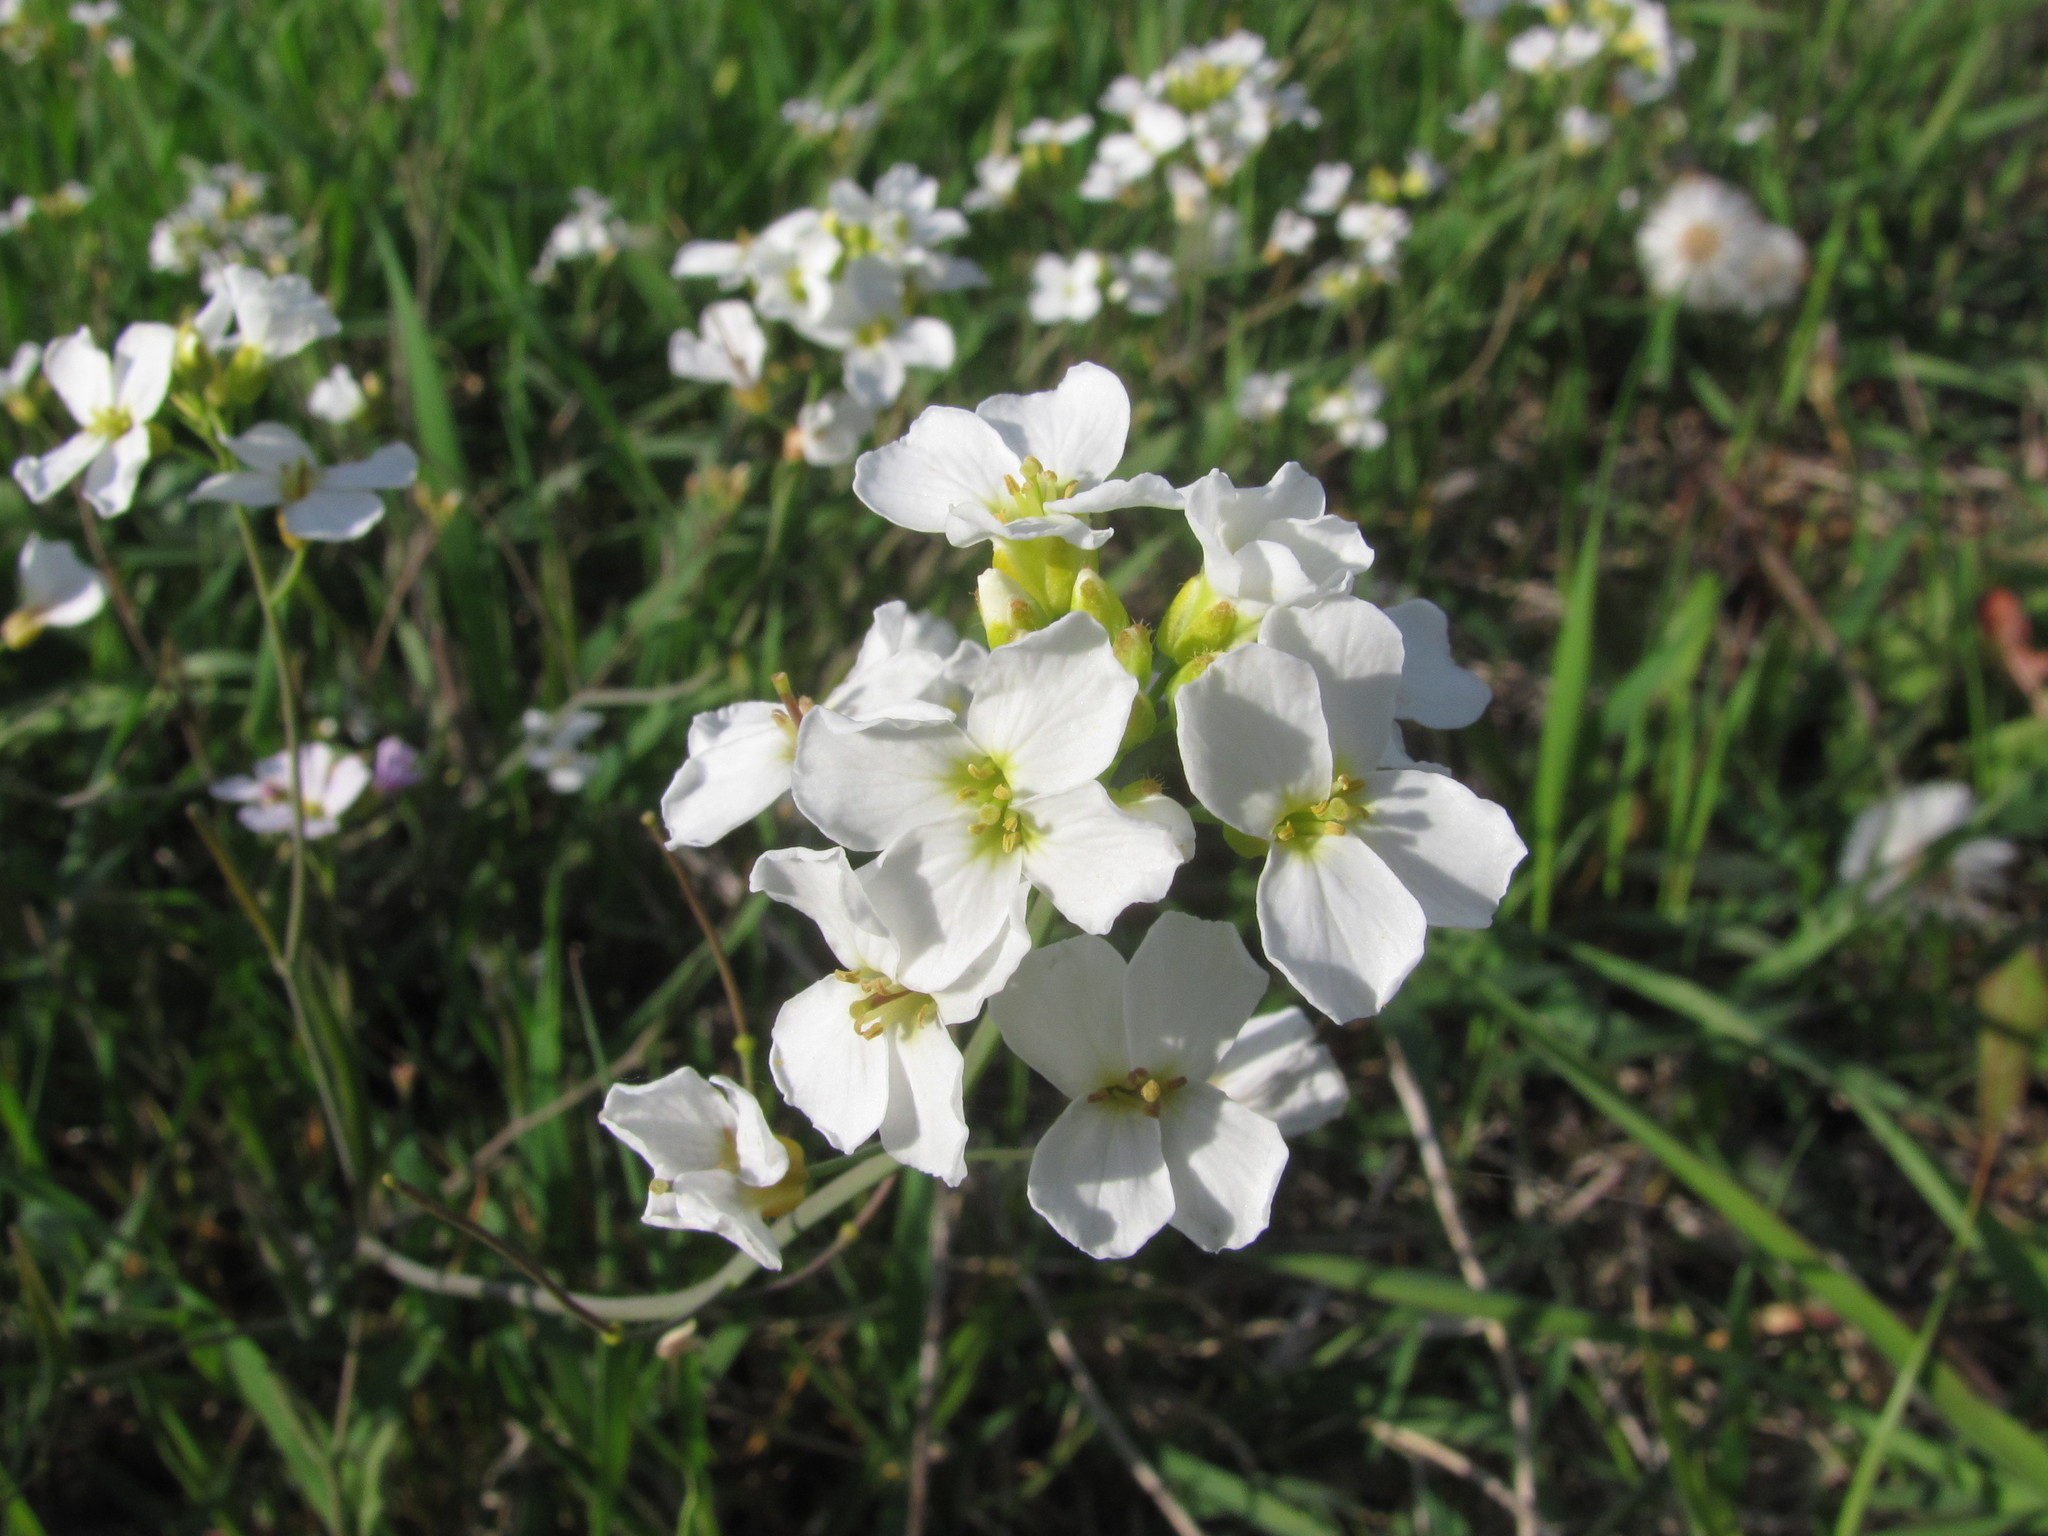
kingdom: Plantae
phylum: Tracheophyta
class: Magnoliopsida
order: Brassicales
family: Brassicaceae
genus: Arabidopsis
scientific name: Arabidopsis arenosa
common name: Sand rock-cress
